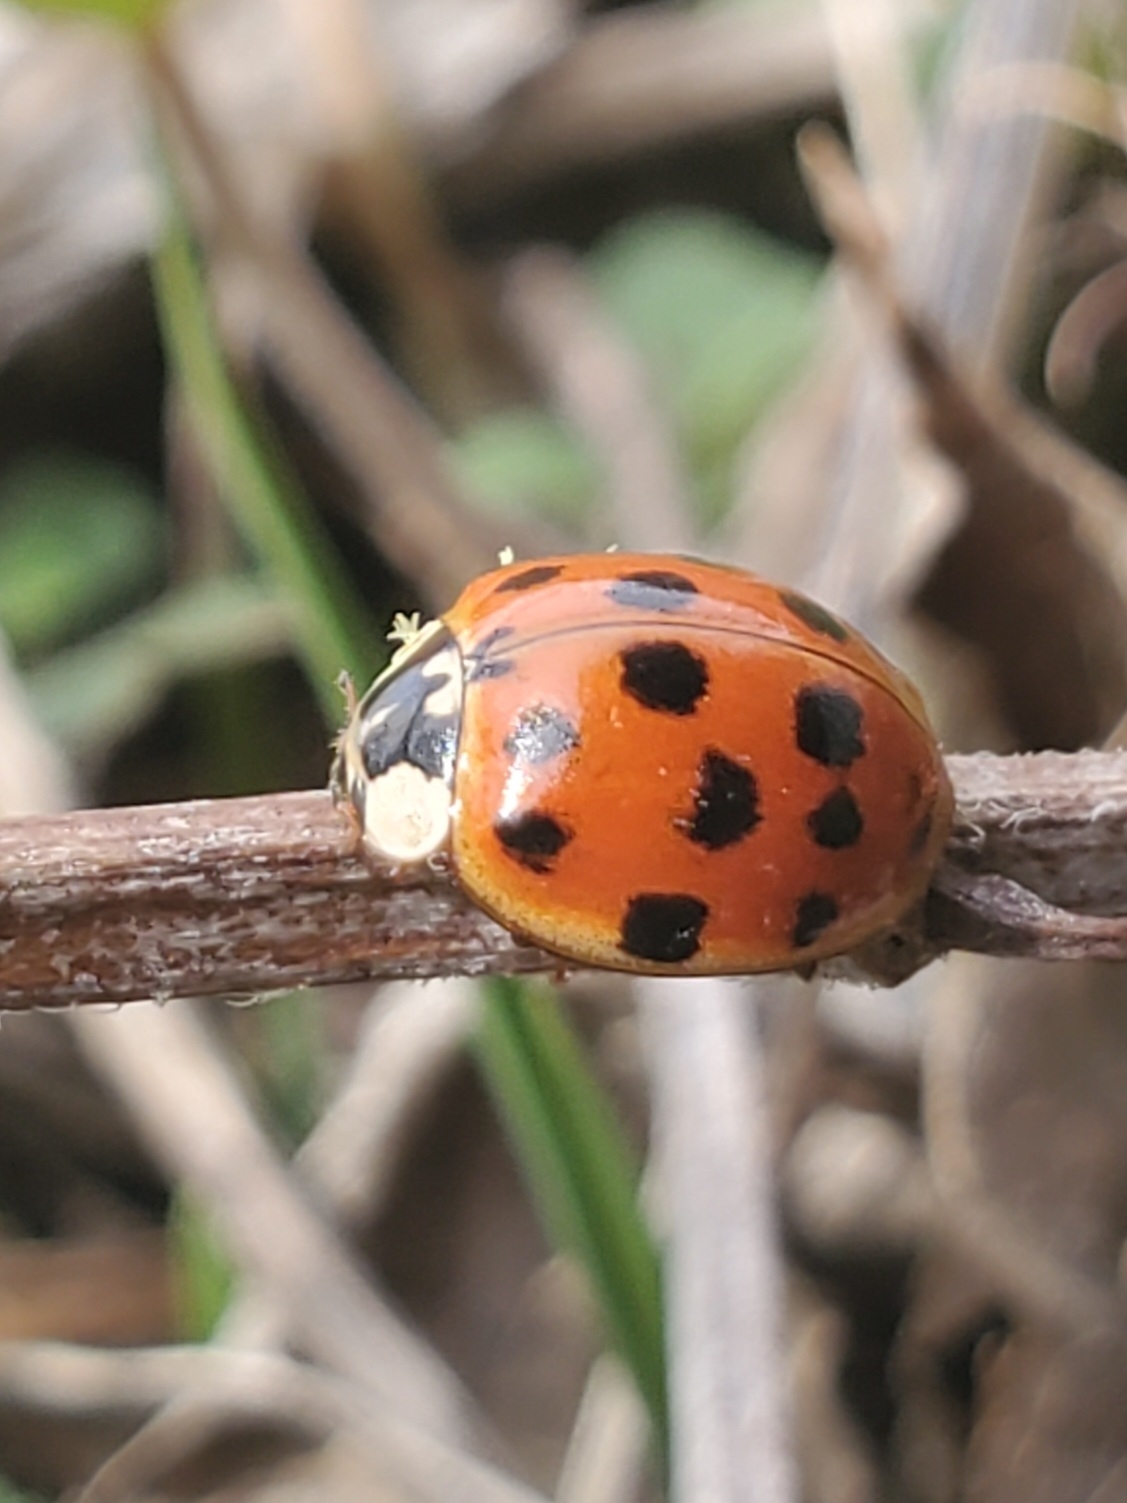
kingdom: Animalia
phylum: Arthropoda
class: Insecta
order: Coleoptera
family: Coccinellidae
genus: Harmonia
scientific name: Harmonia axyridis
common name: Harlequin ladybird
